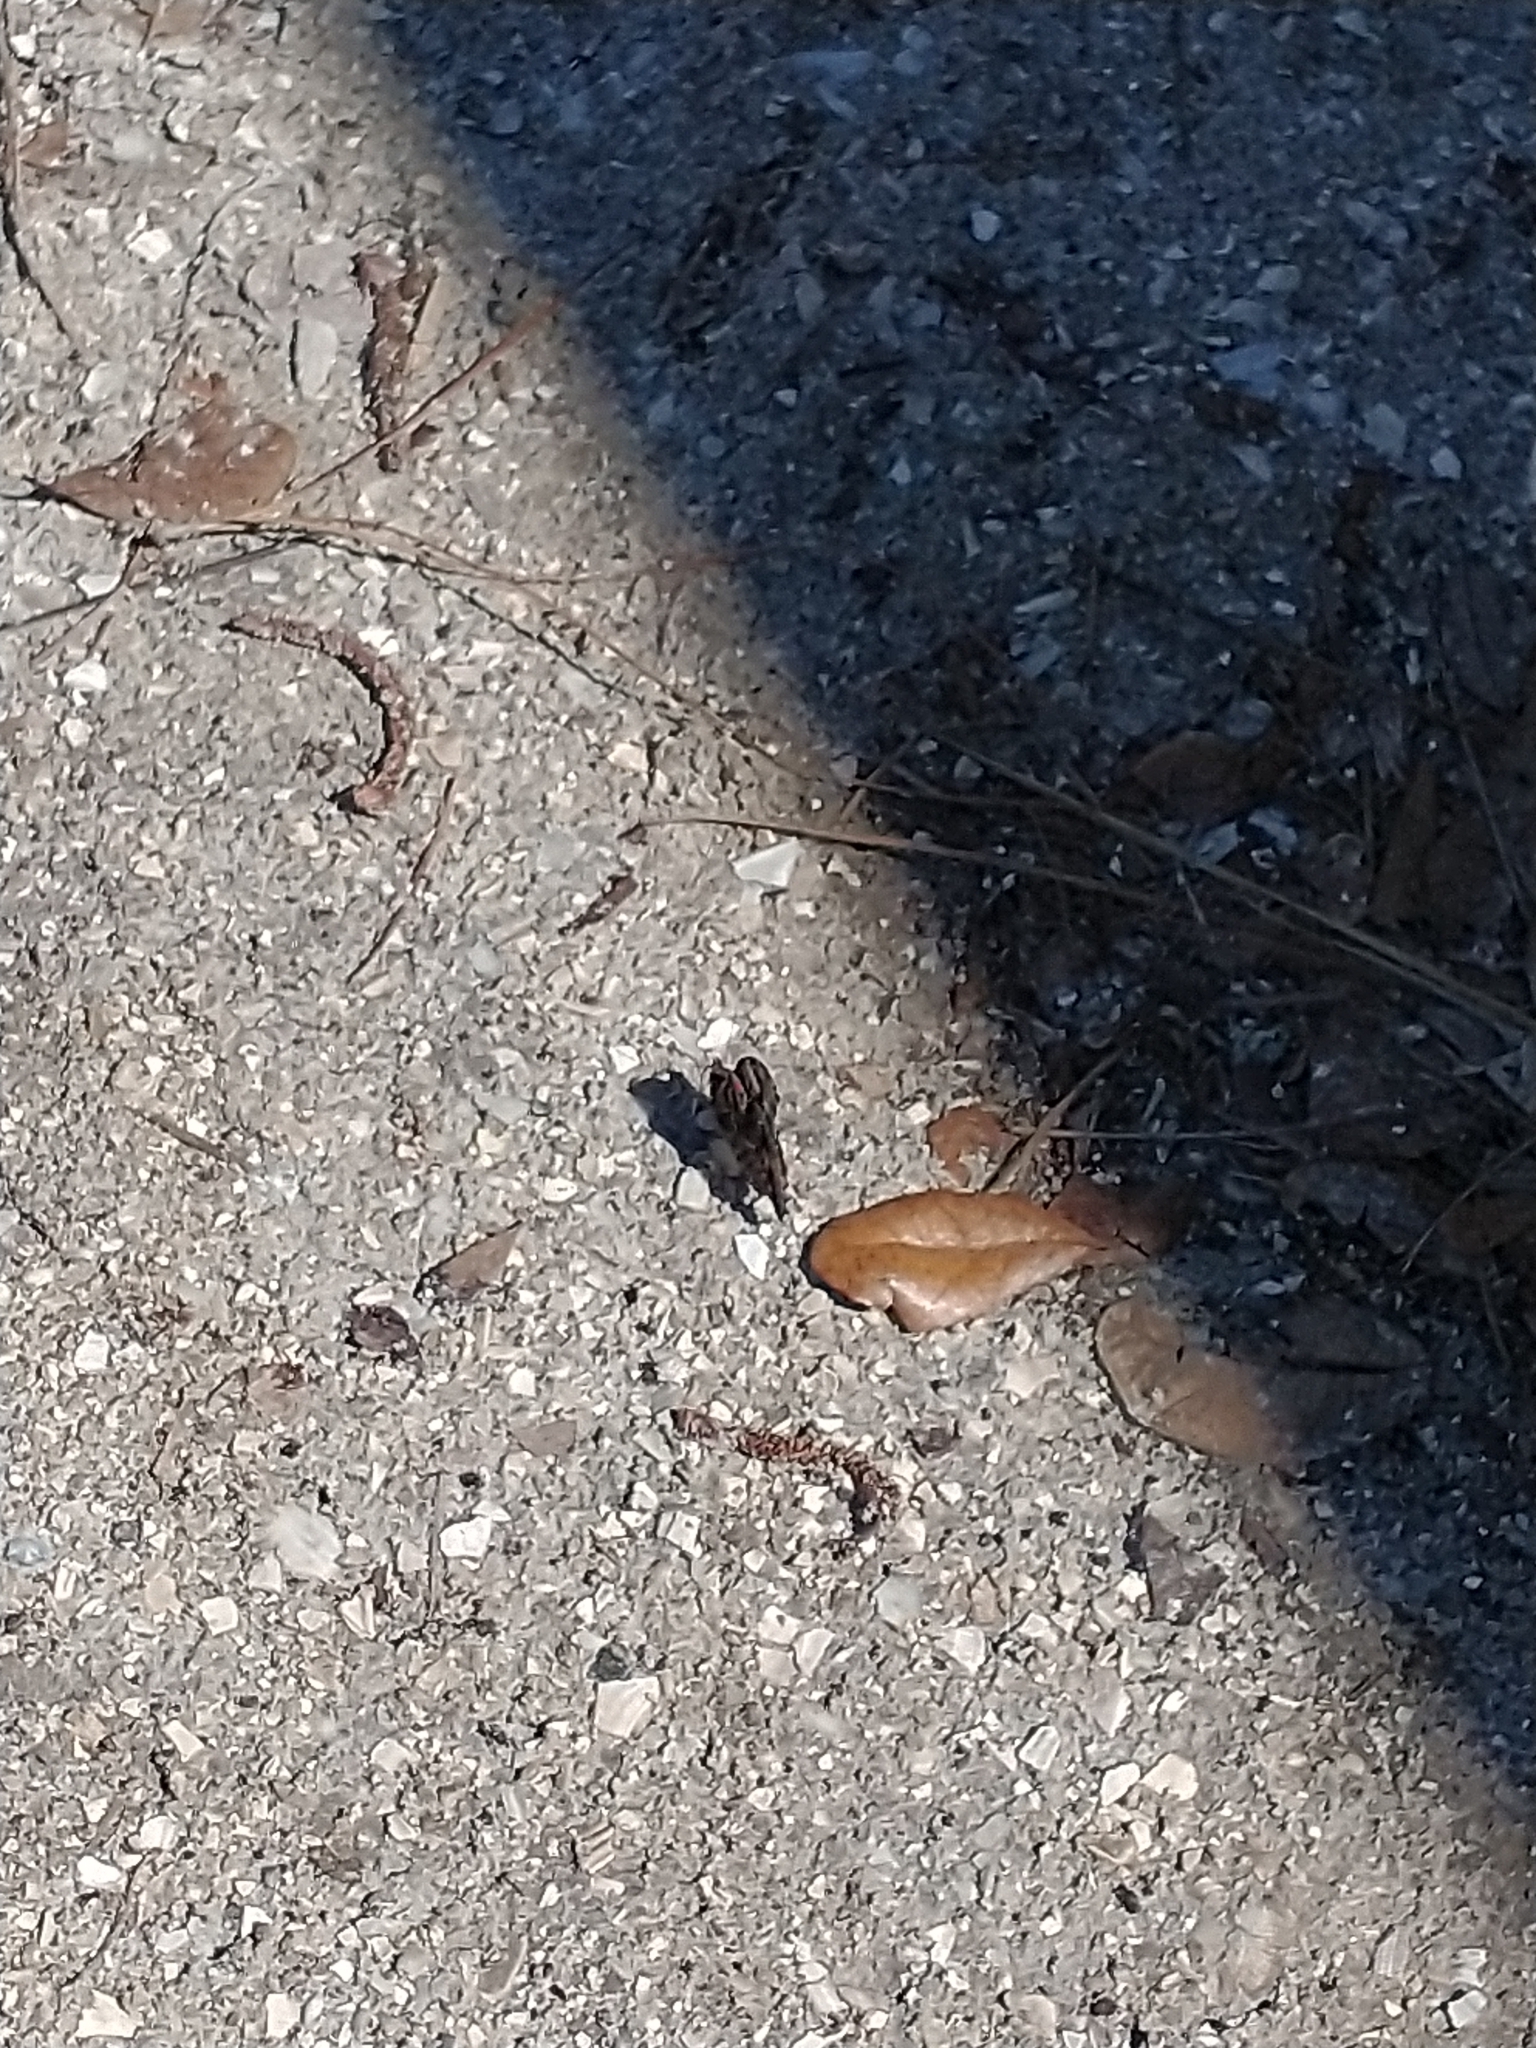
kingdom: Animalia
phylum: Arthropoda
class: Insecta
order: Lepidoptera
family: Nymphalidae
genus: Vanessa
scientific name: Vanessa atalanta
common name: Red admiral
